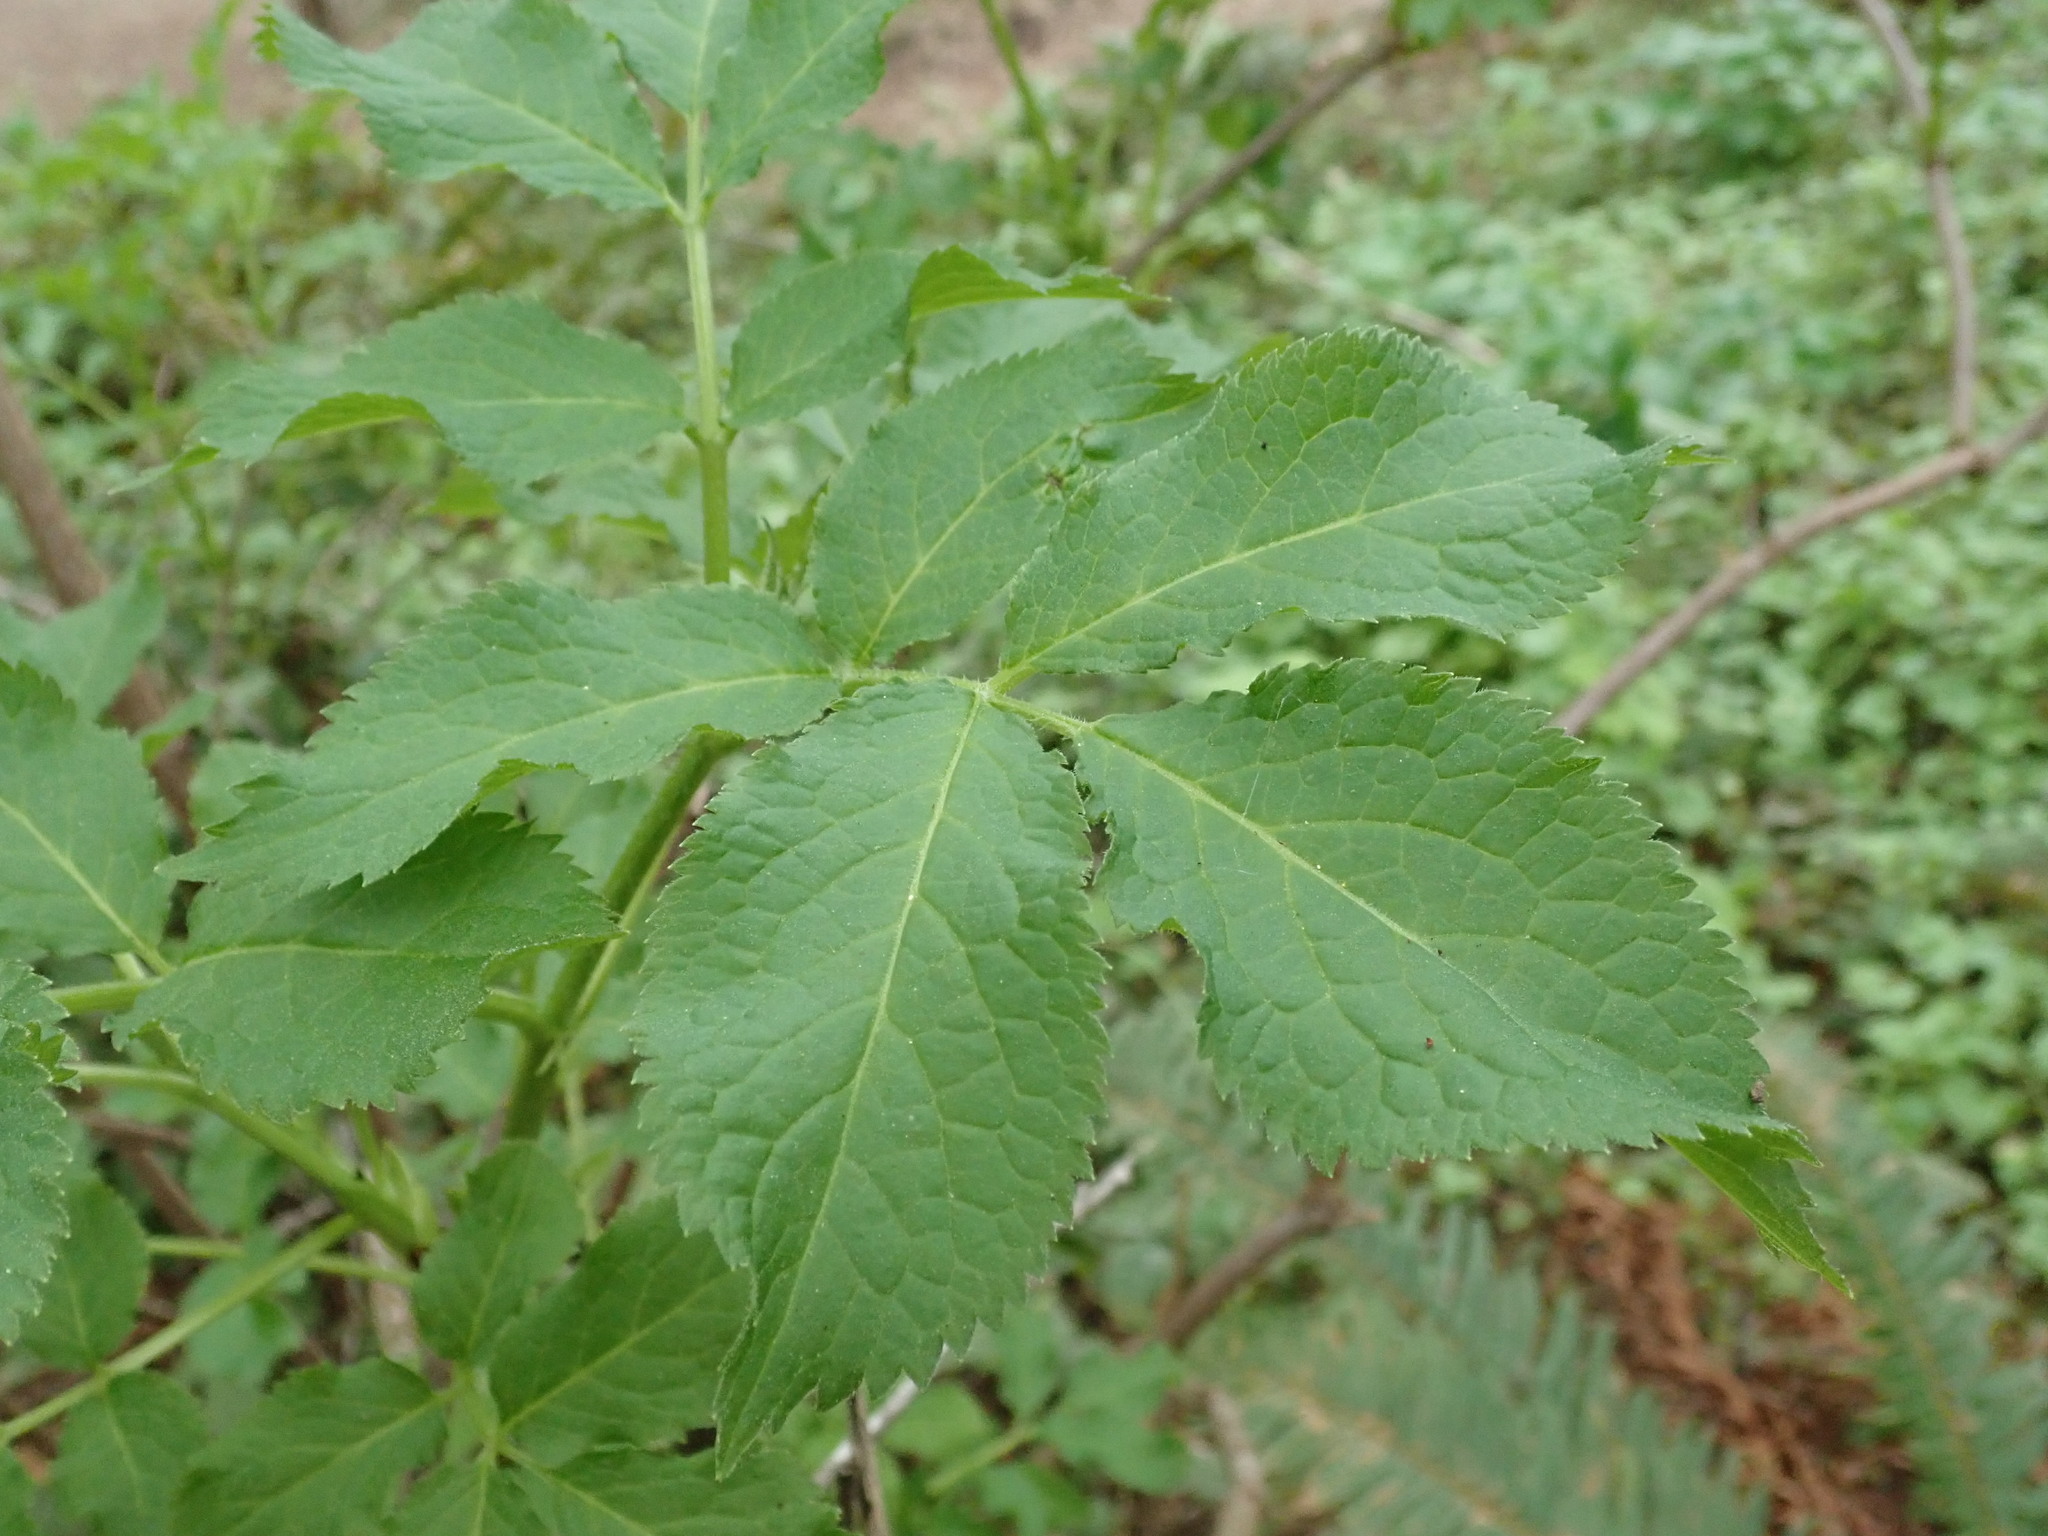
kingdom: Plantae
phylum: Tracheophyta
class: Magnoliopsida
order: Dipsacales
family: Viburnaceae
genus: Sambucus
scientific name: Sambucus racemosa
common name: Red-berried elder
